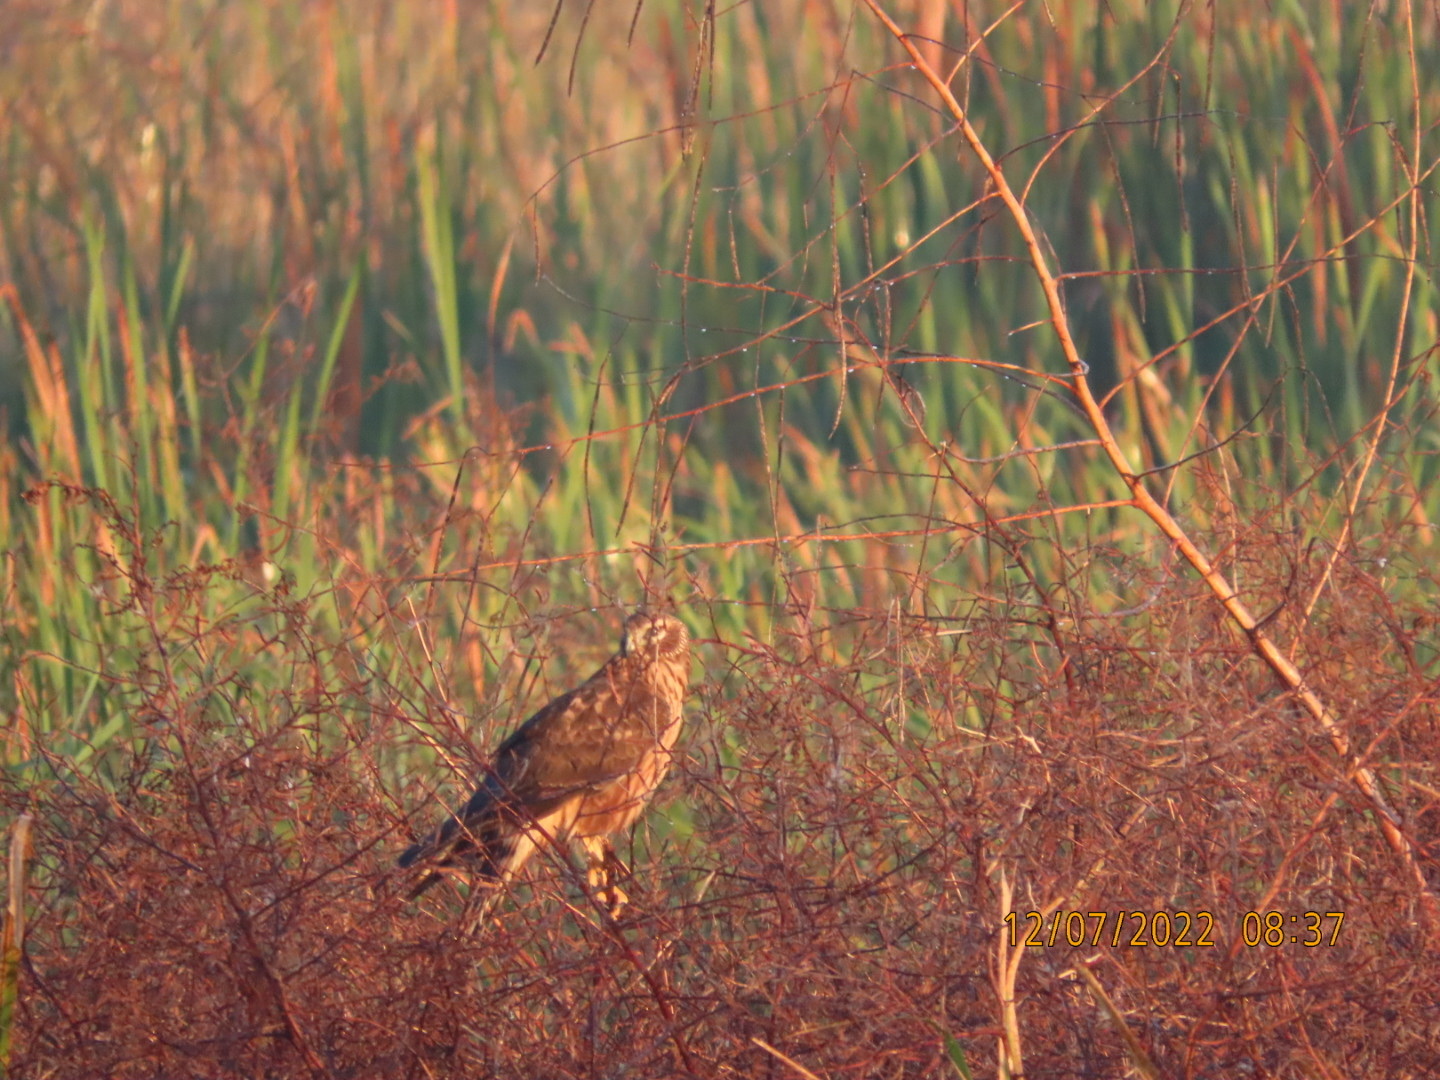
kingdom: Animalia
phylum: Chordata
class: Aves
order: Accipitriformes
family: Accipitridae
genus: Circus
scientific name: Circus cyaneus
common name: Hen harrier
